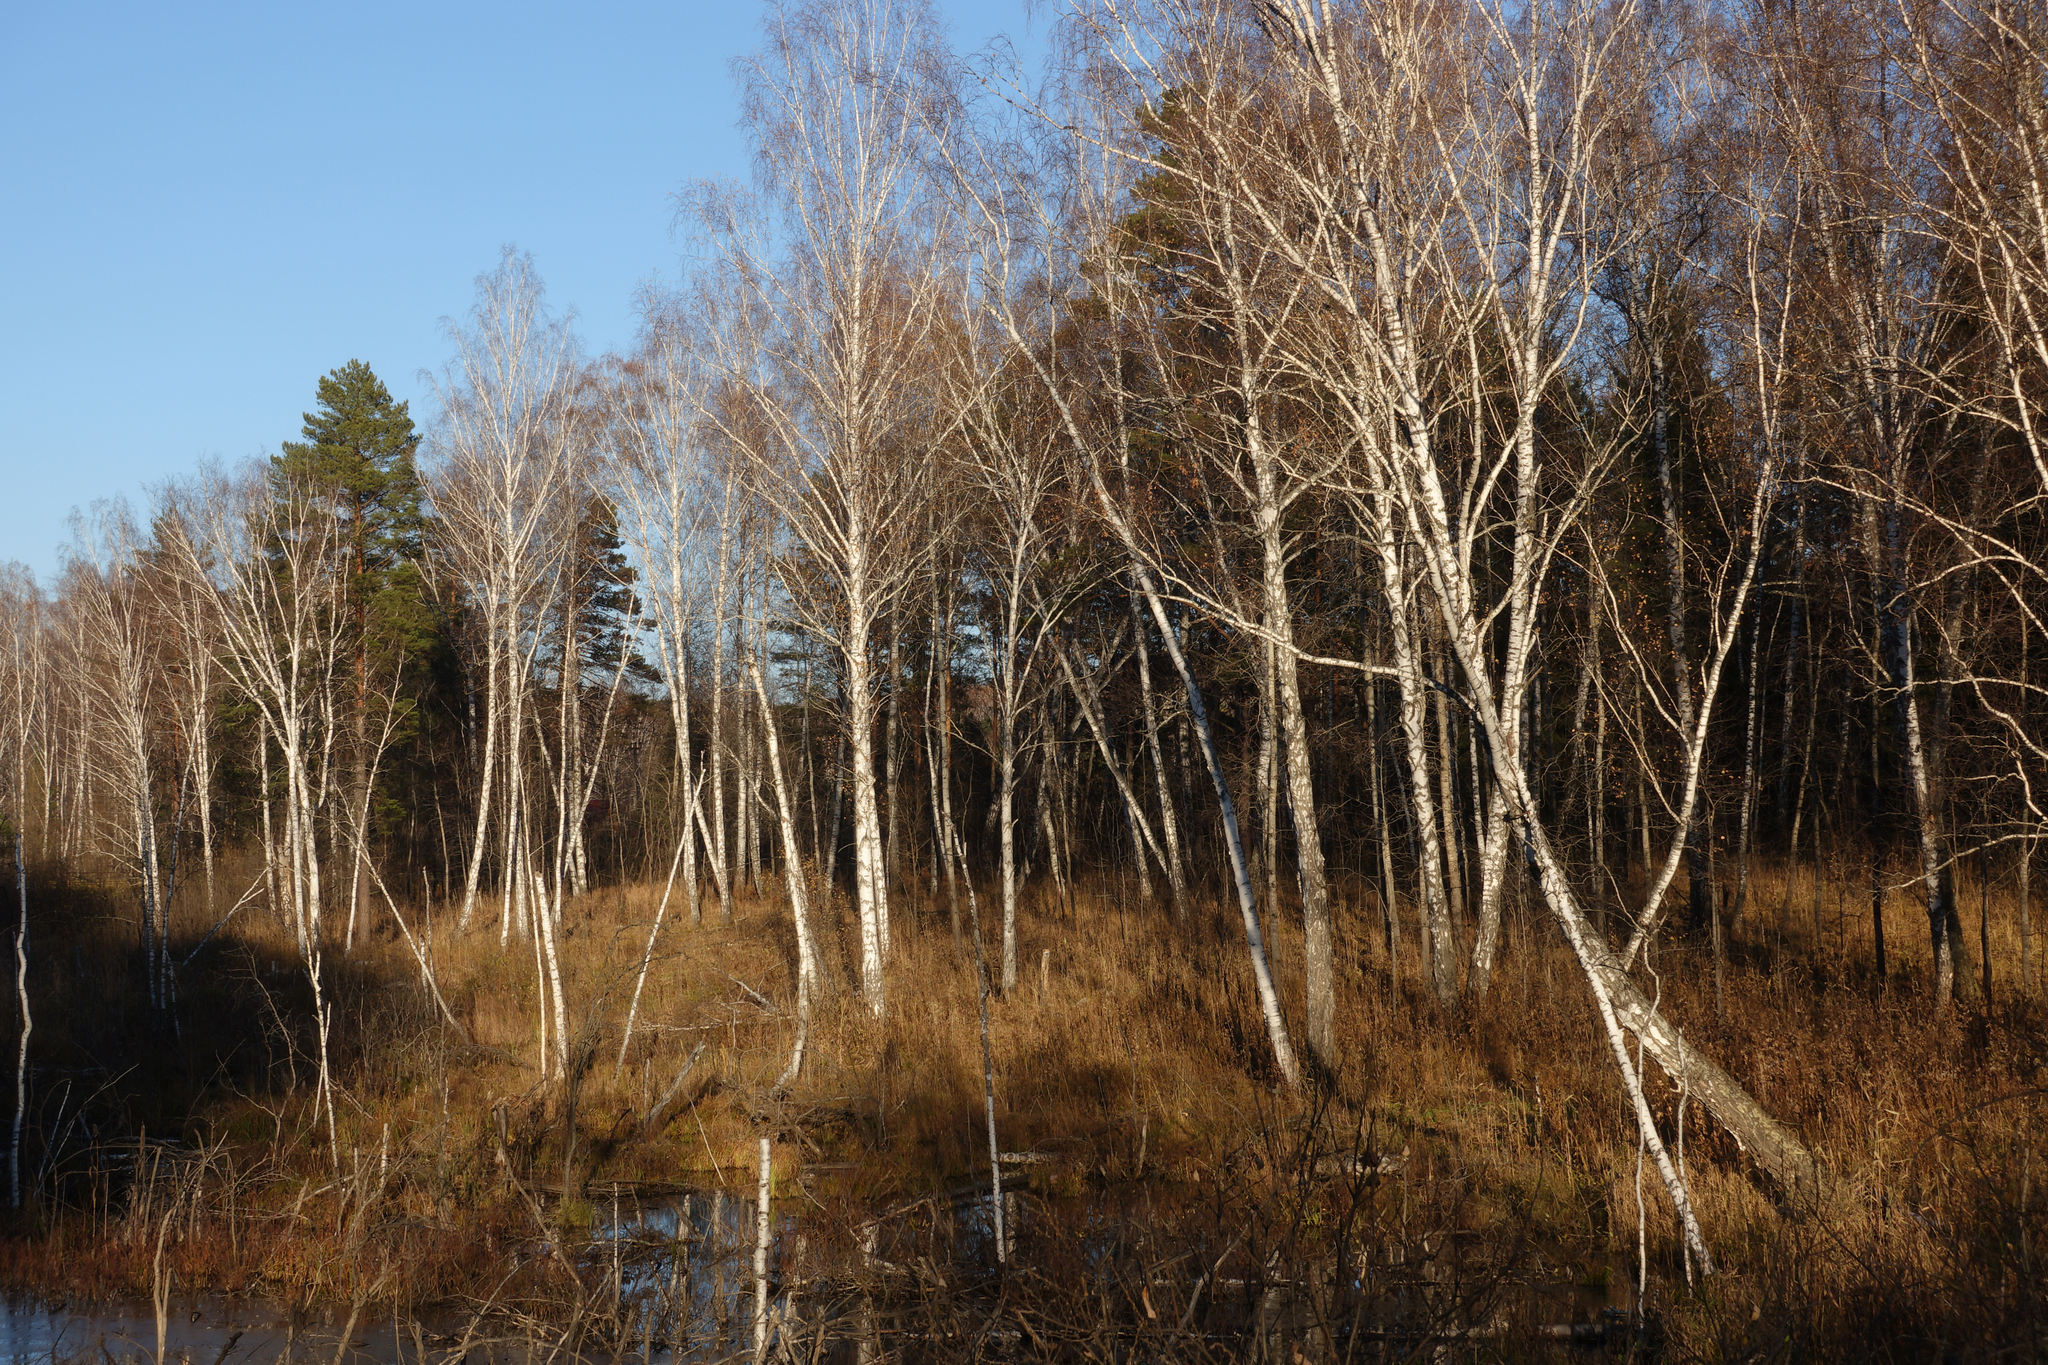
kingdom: Plantae
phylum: Tracheophyta
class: Magnoliopsida
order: Fagales
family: Betulaceae
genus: Betula
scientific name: Betula pendula
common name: Silver birch
